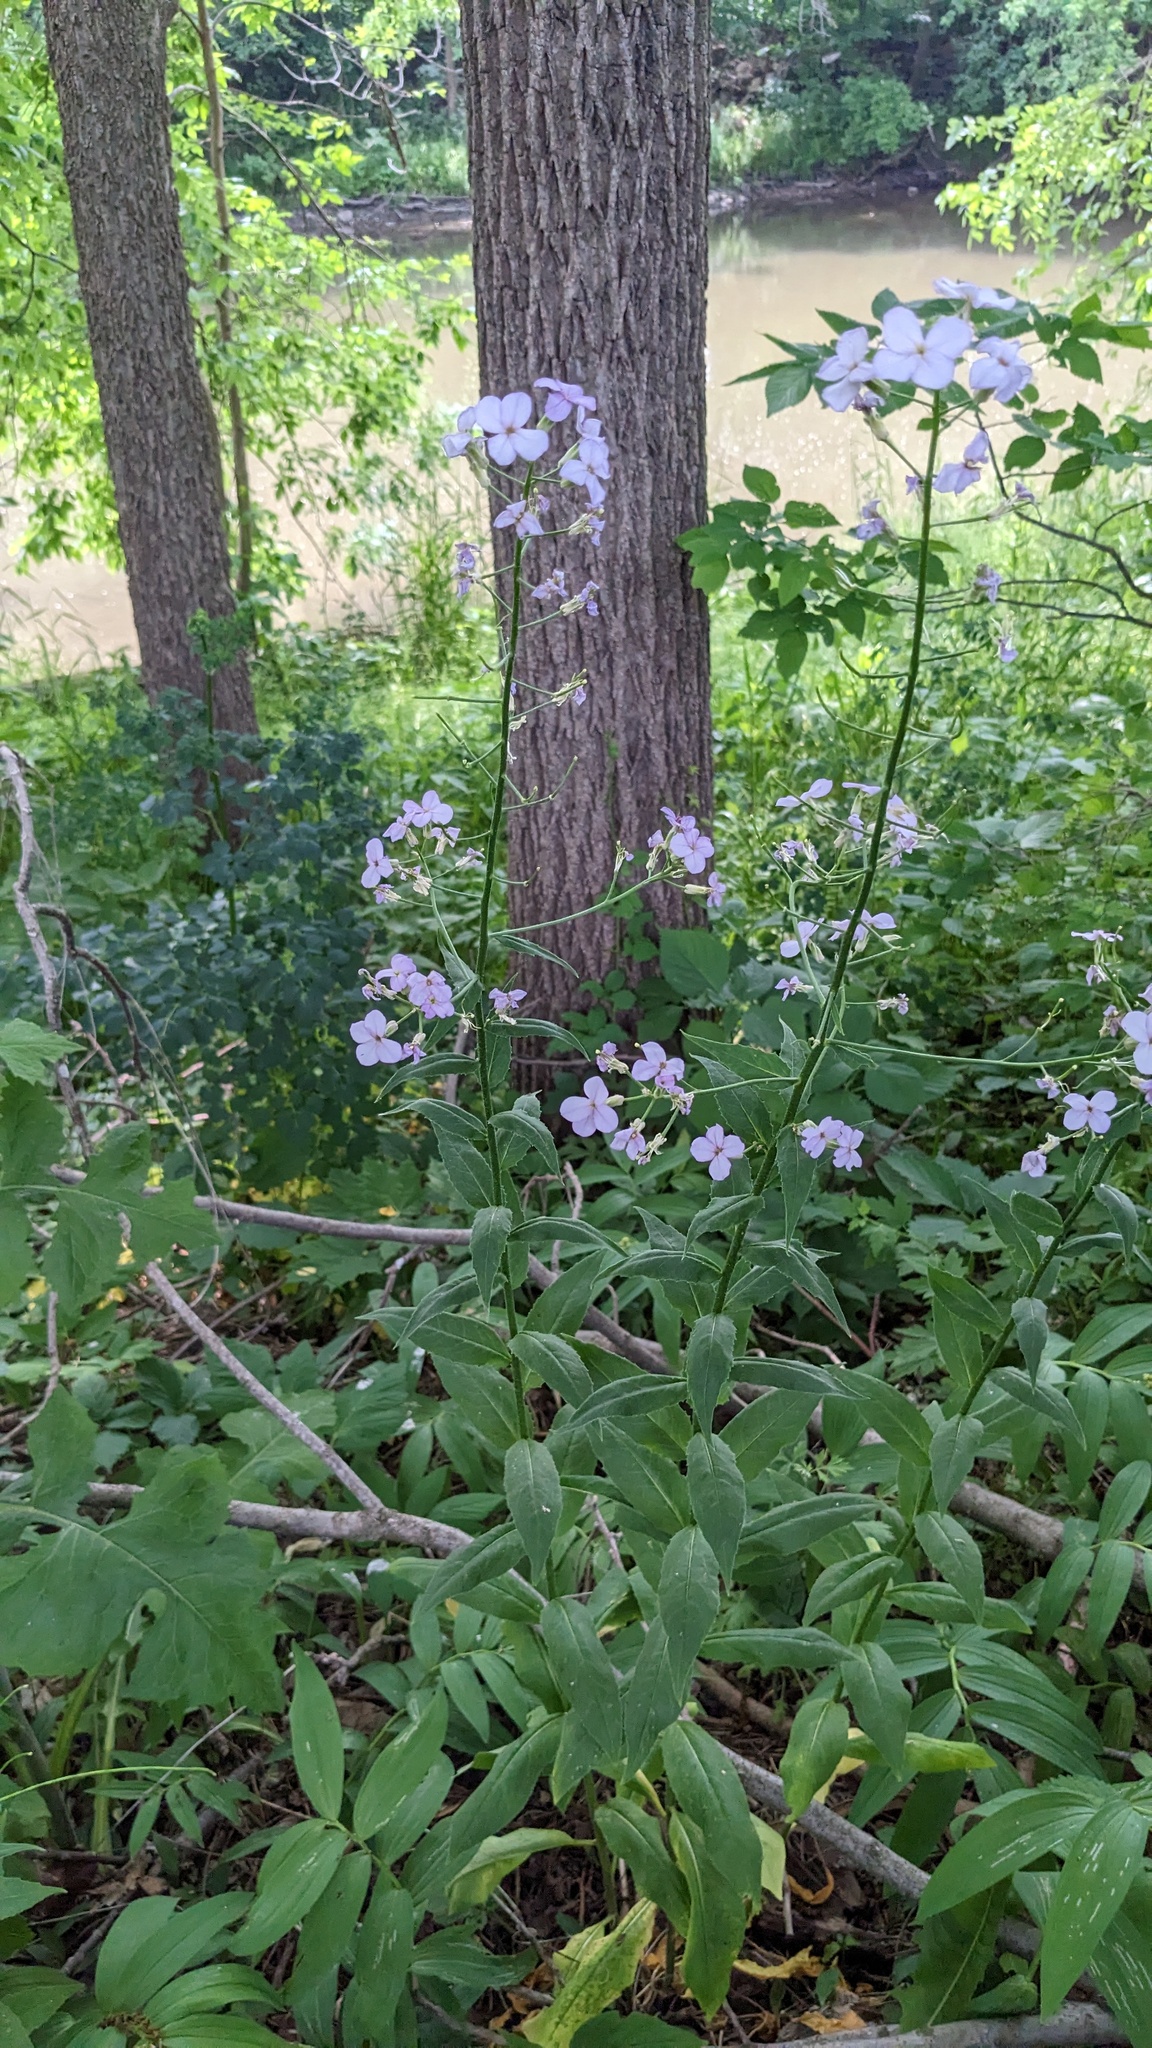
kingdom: Plantae
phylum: Tracheophyta
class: Magnoliopsida
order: Brassicales
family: Brassicaceae
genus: Hesperis
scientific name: Hesperis matronalis
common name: Dame's-violet
